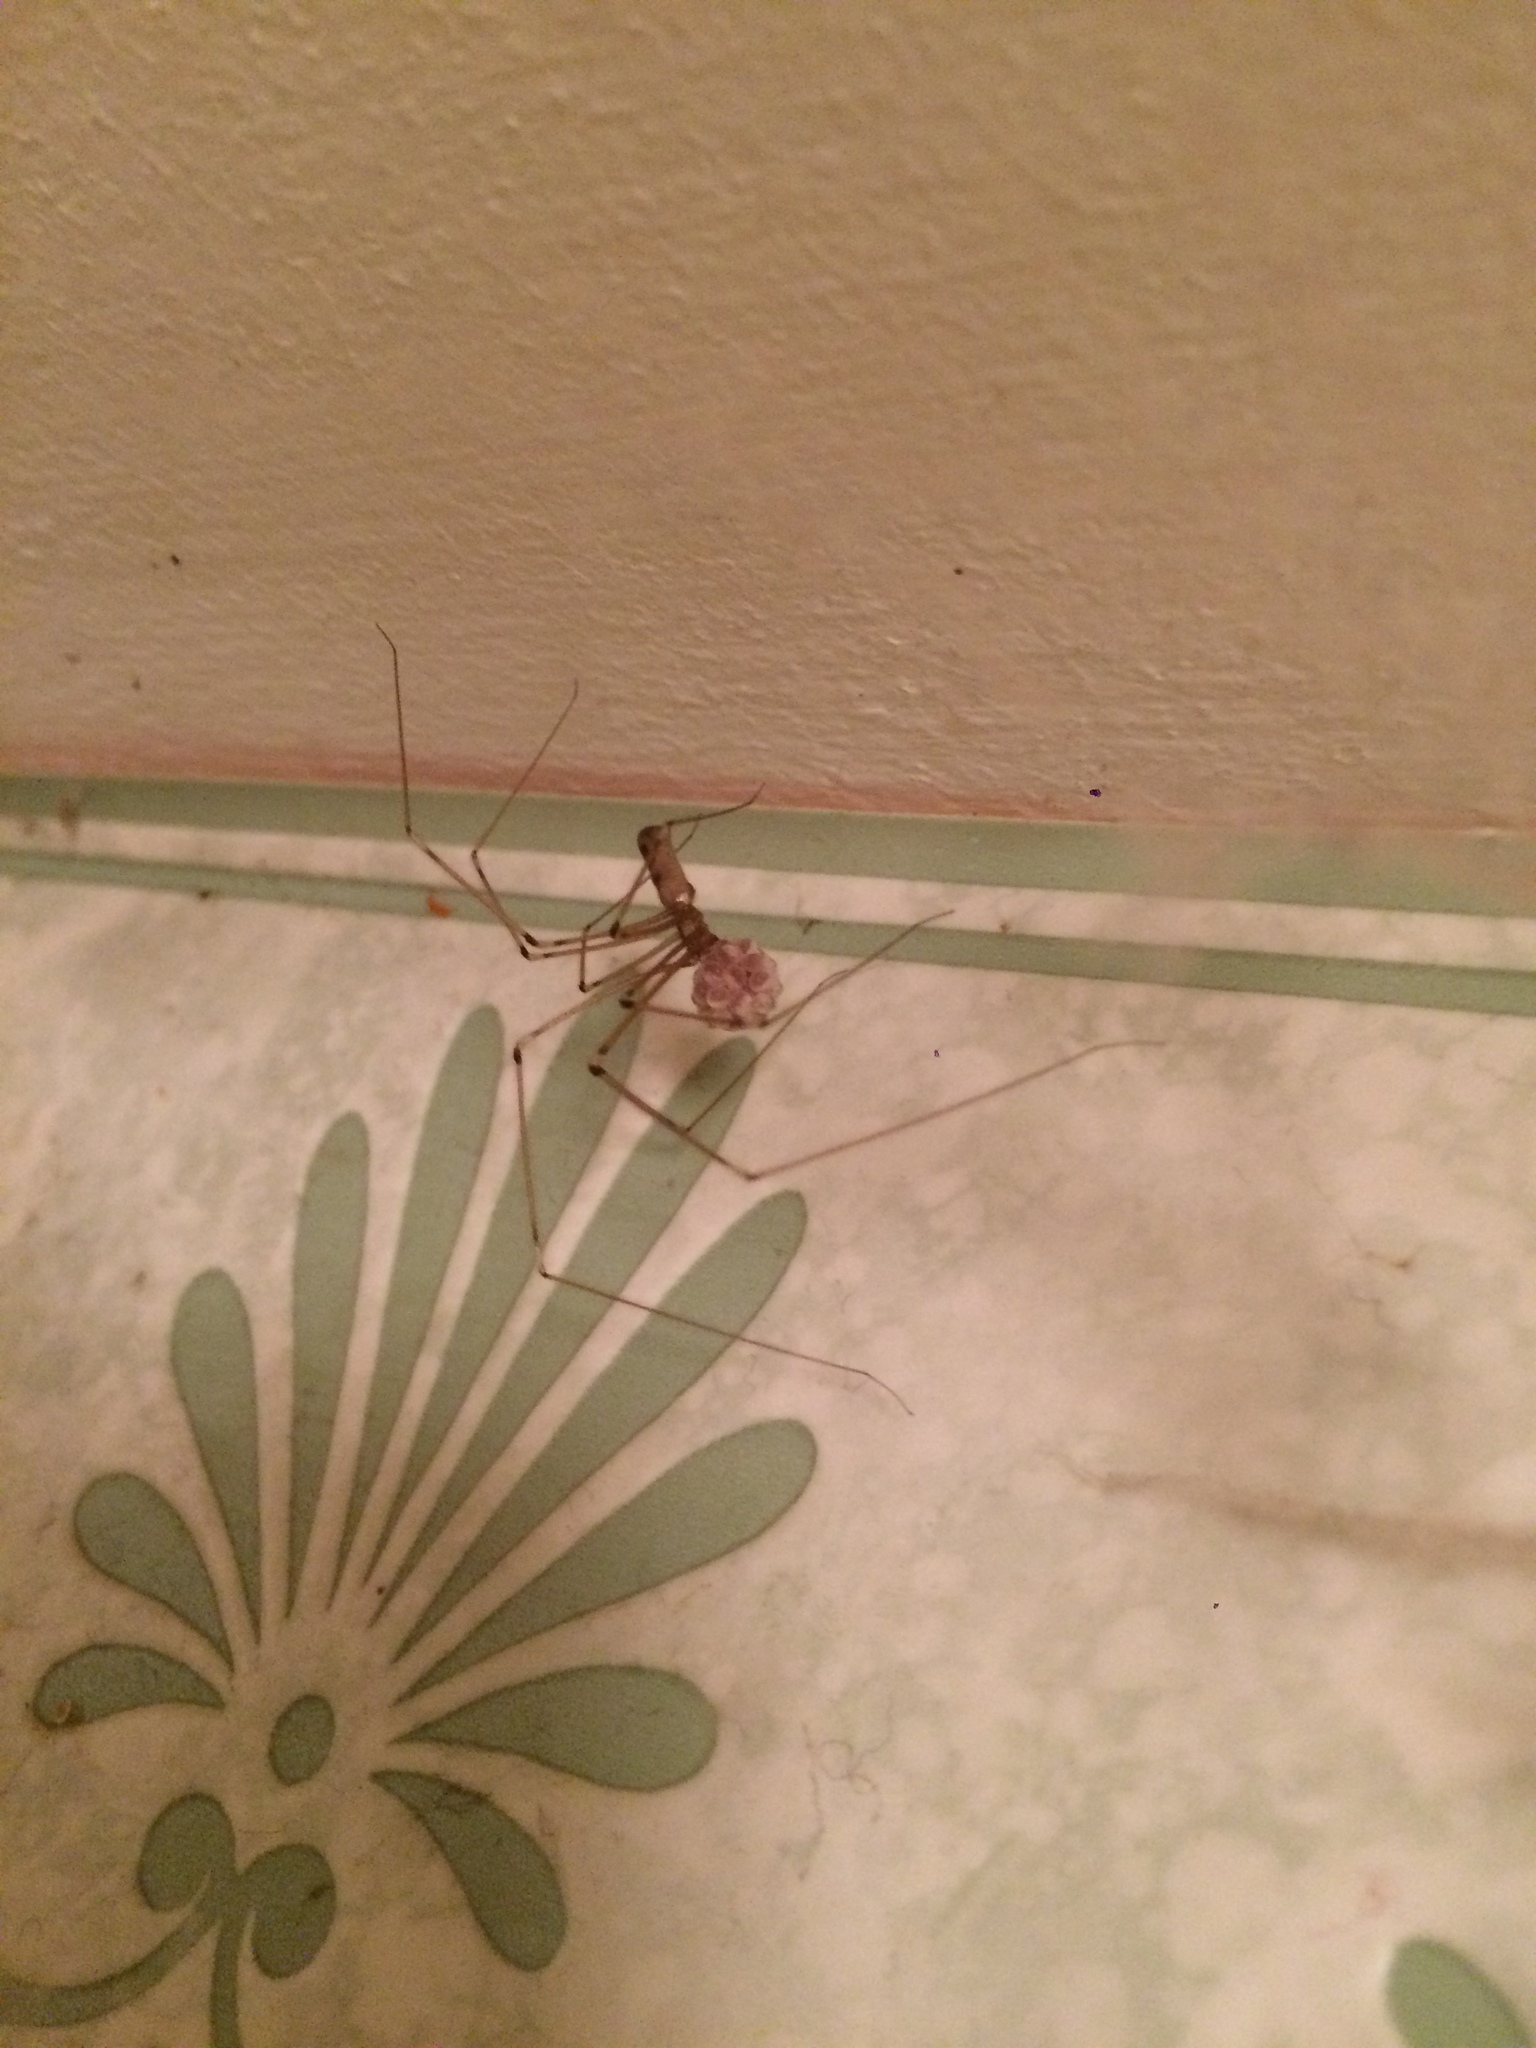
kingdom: Animalia
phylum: Arthropoda
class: Arachnida
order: Araneae
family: Pholcidae
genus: Pholcus
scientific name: Pholcus phalangioides
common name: Longbodied cellar spider
